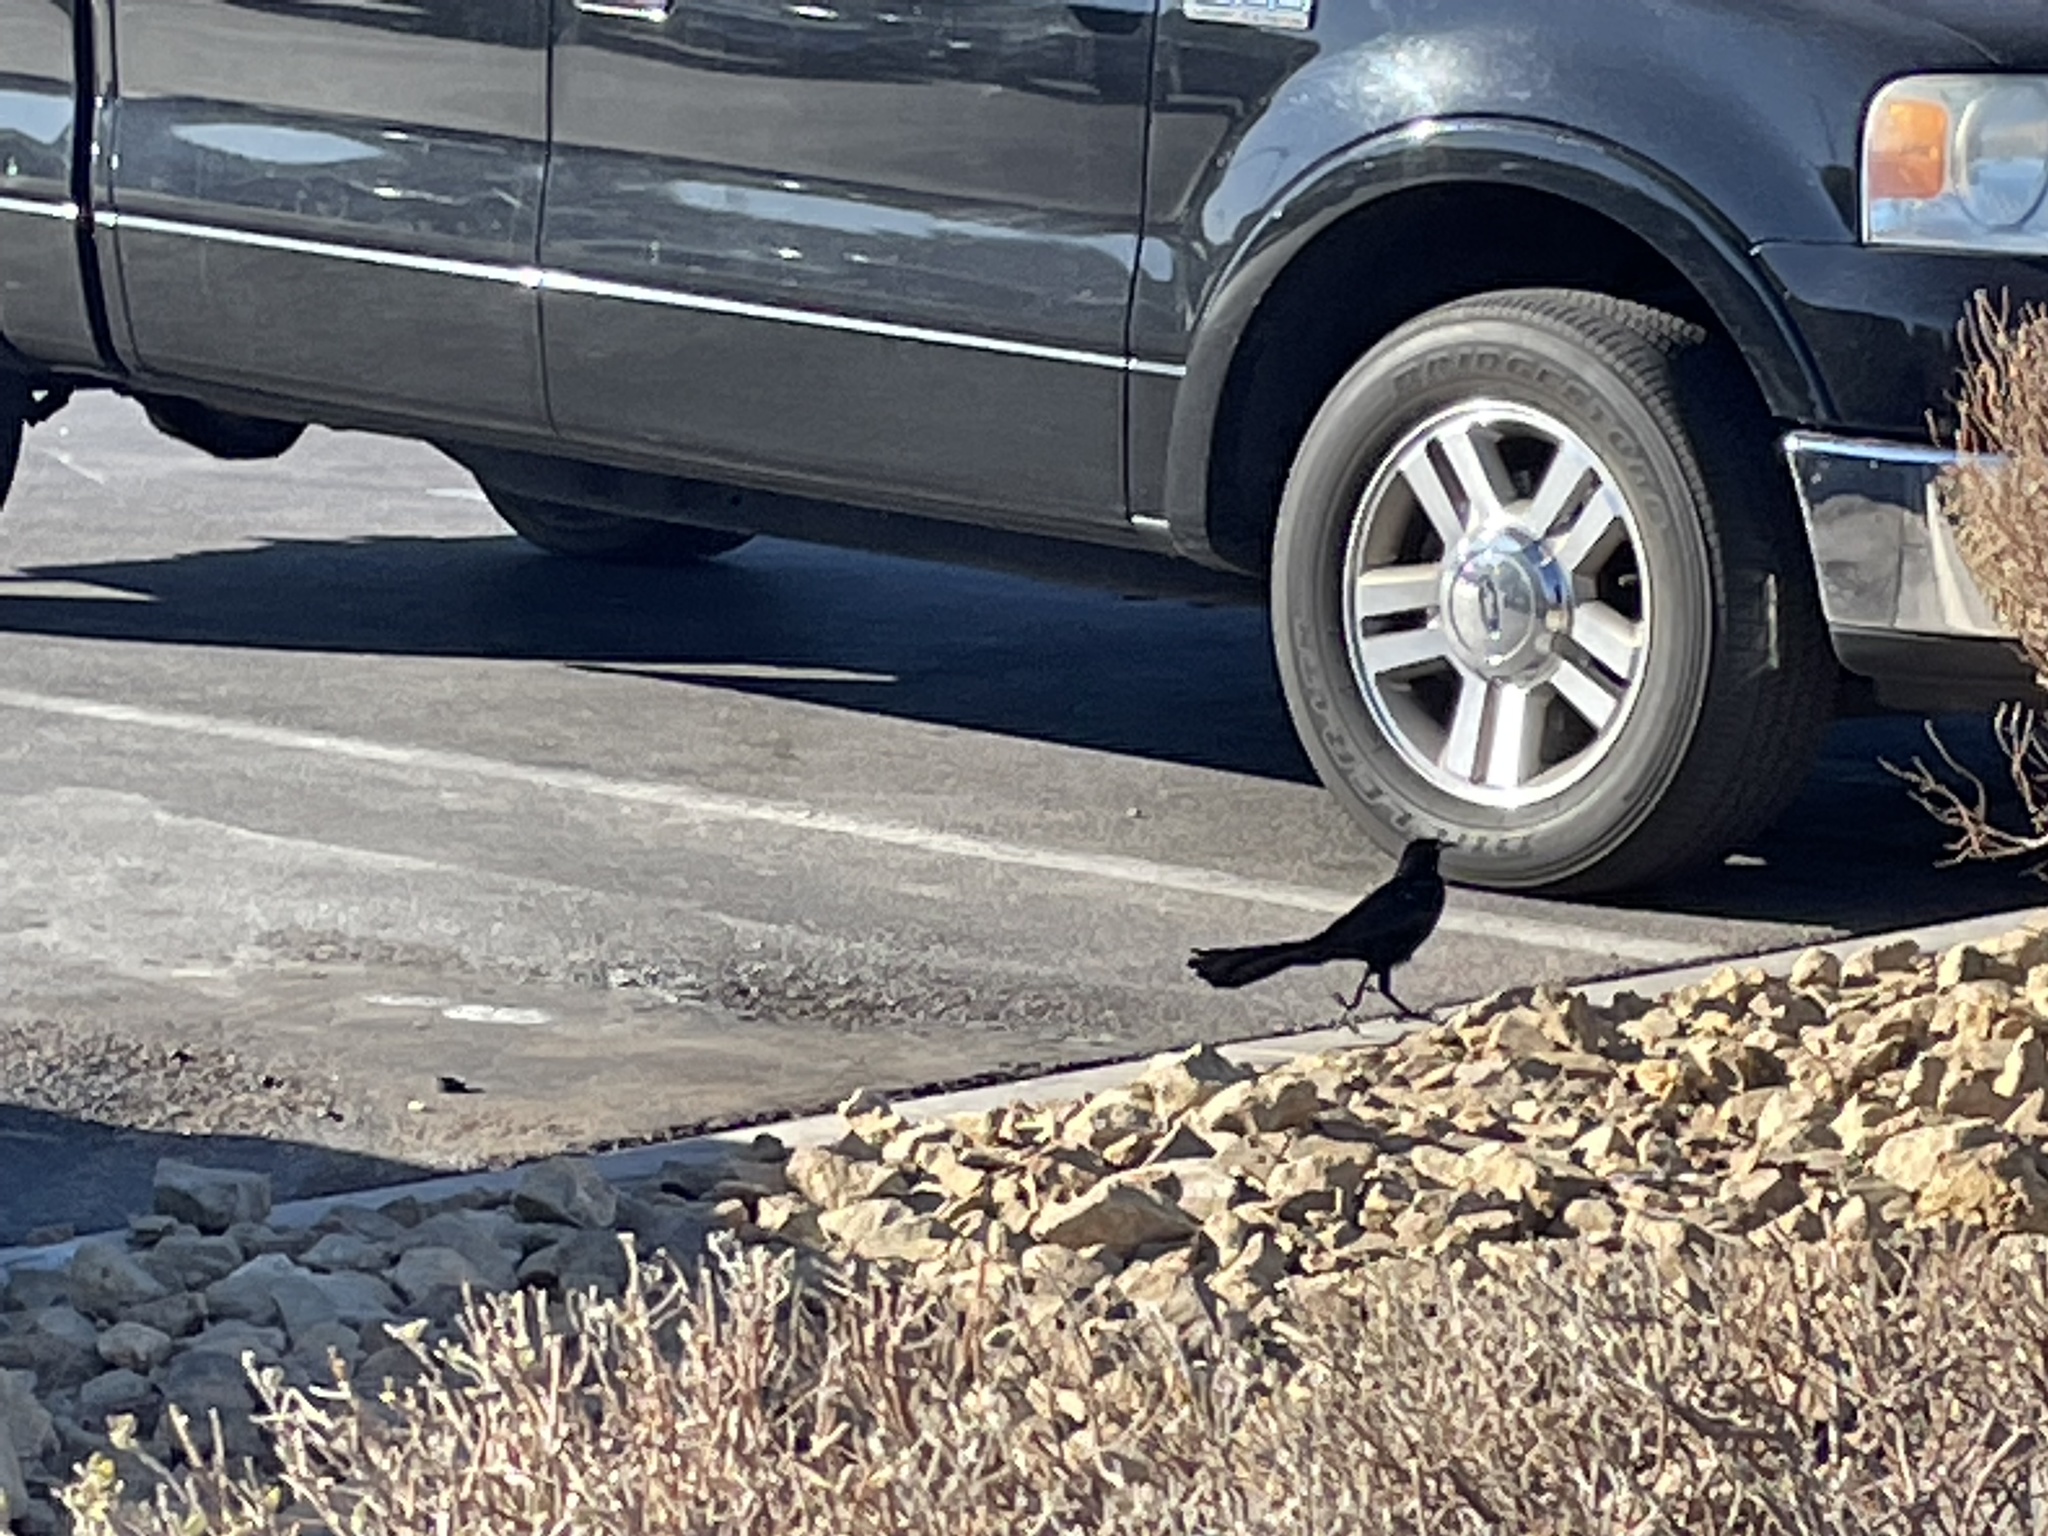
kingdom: Animalia
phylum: Chordata
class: Aves
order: Passeriformes
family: Icteridae
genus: Quiscalus
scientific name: Quiscalus mexicanus
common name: Great-tailed grackle
